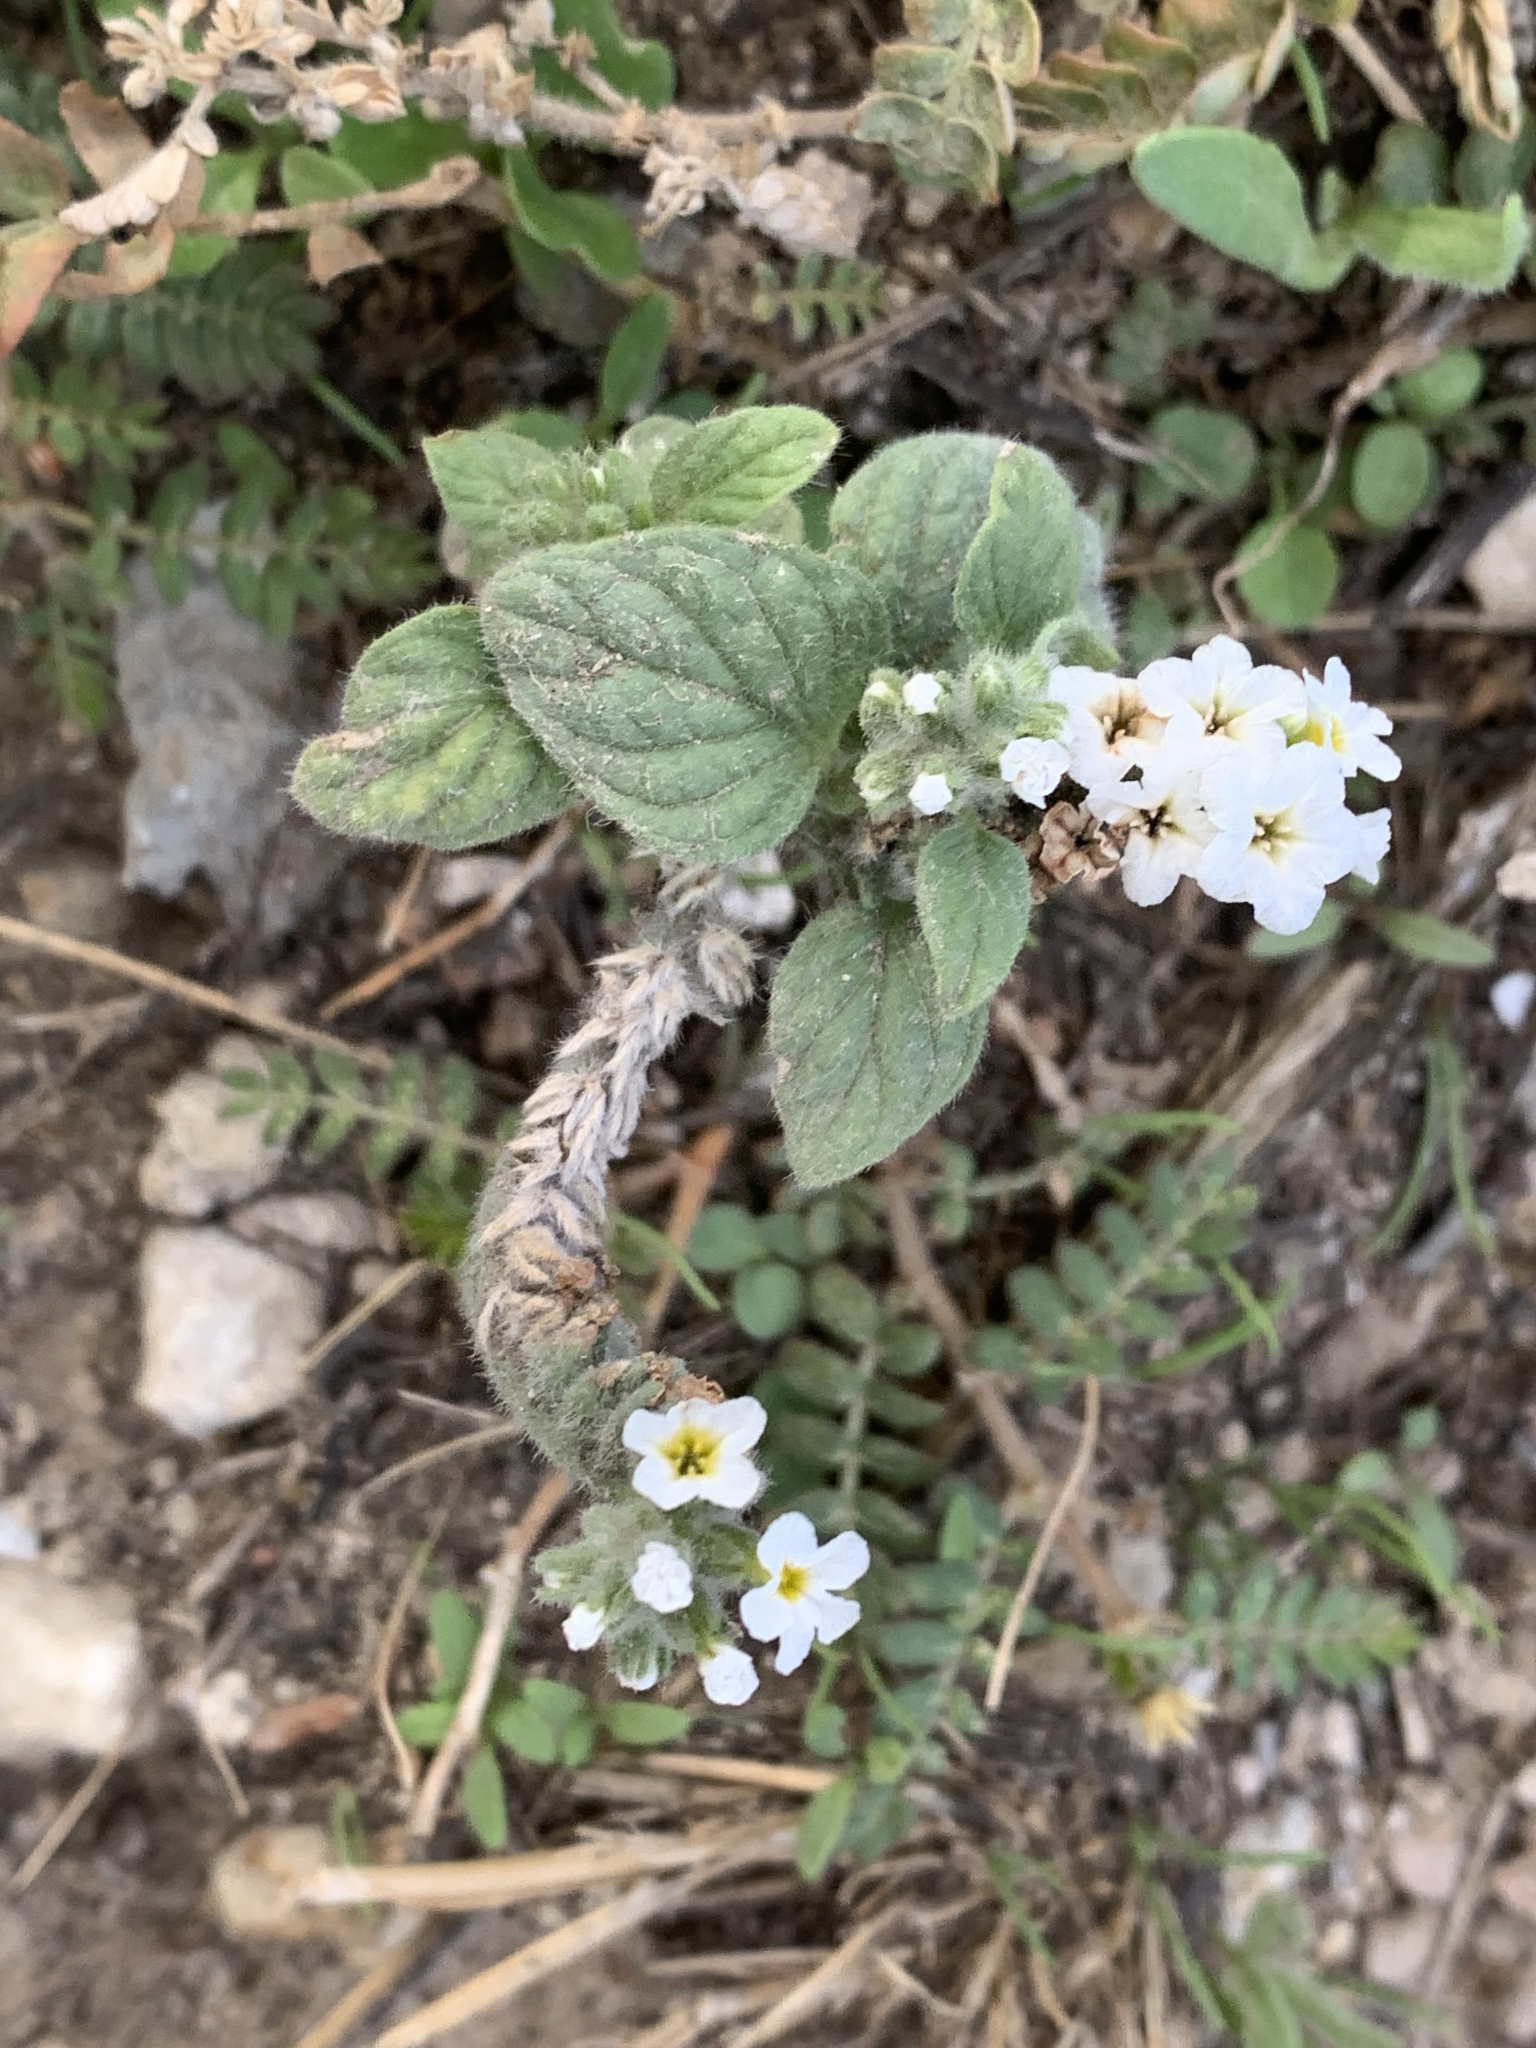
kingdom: Plantae
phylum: Tracheophyta
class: Magnoliopsida
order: Boraginales
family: Heliotropiaceae
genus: Heliotropium
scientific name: Heliotropium hirsutissimum
